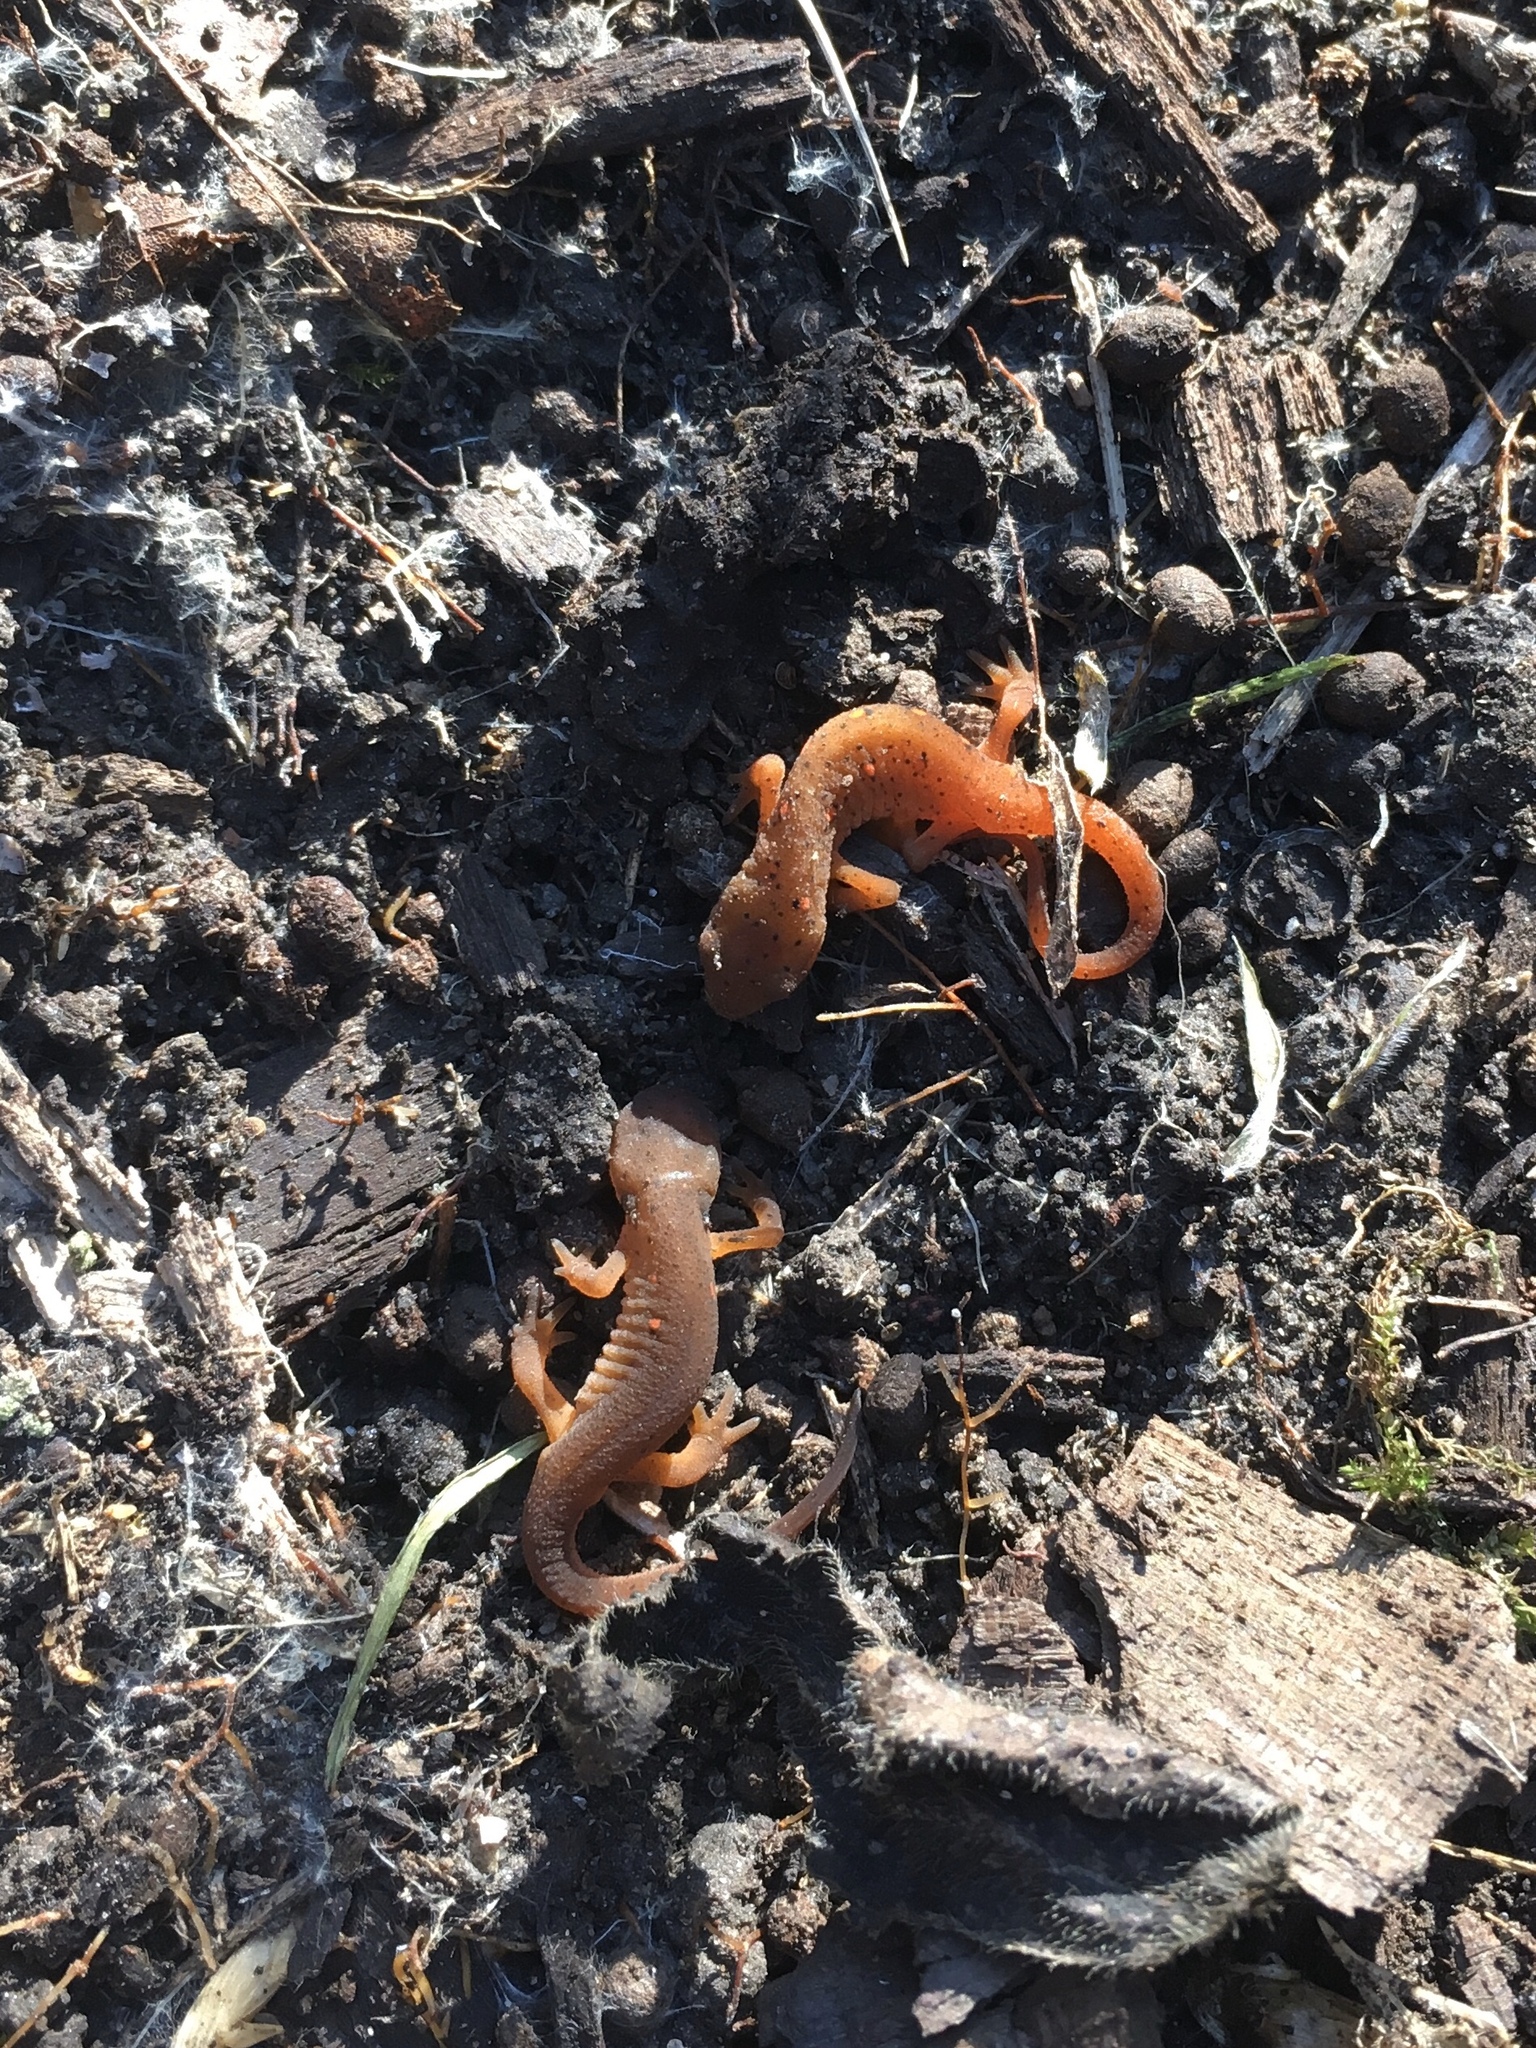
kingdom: Animalia
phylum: Chordata
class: Amphibia
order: Caudata
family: Salamandridae
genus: Notophthalmus
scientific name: Notophthalmus viridescens
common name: Eastern newt
